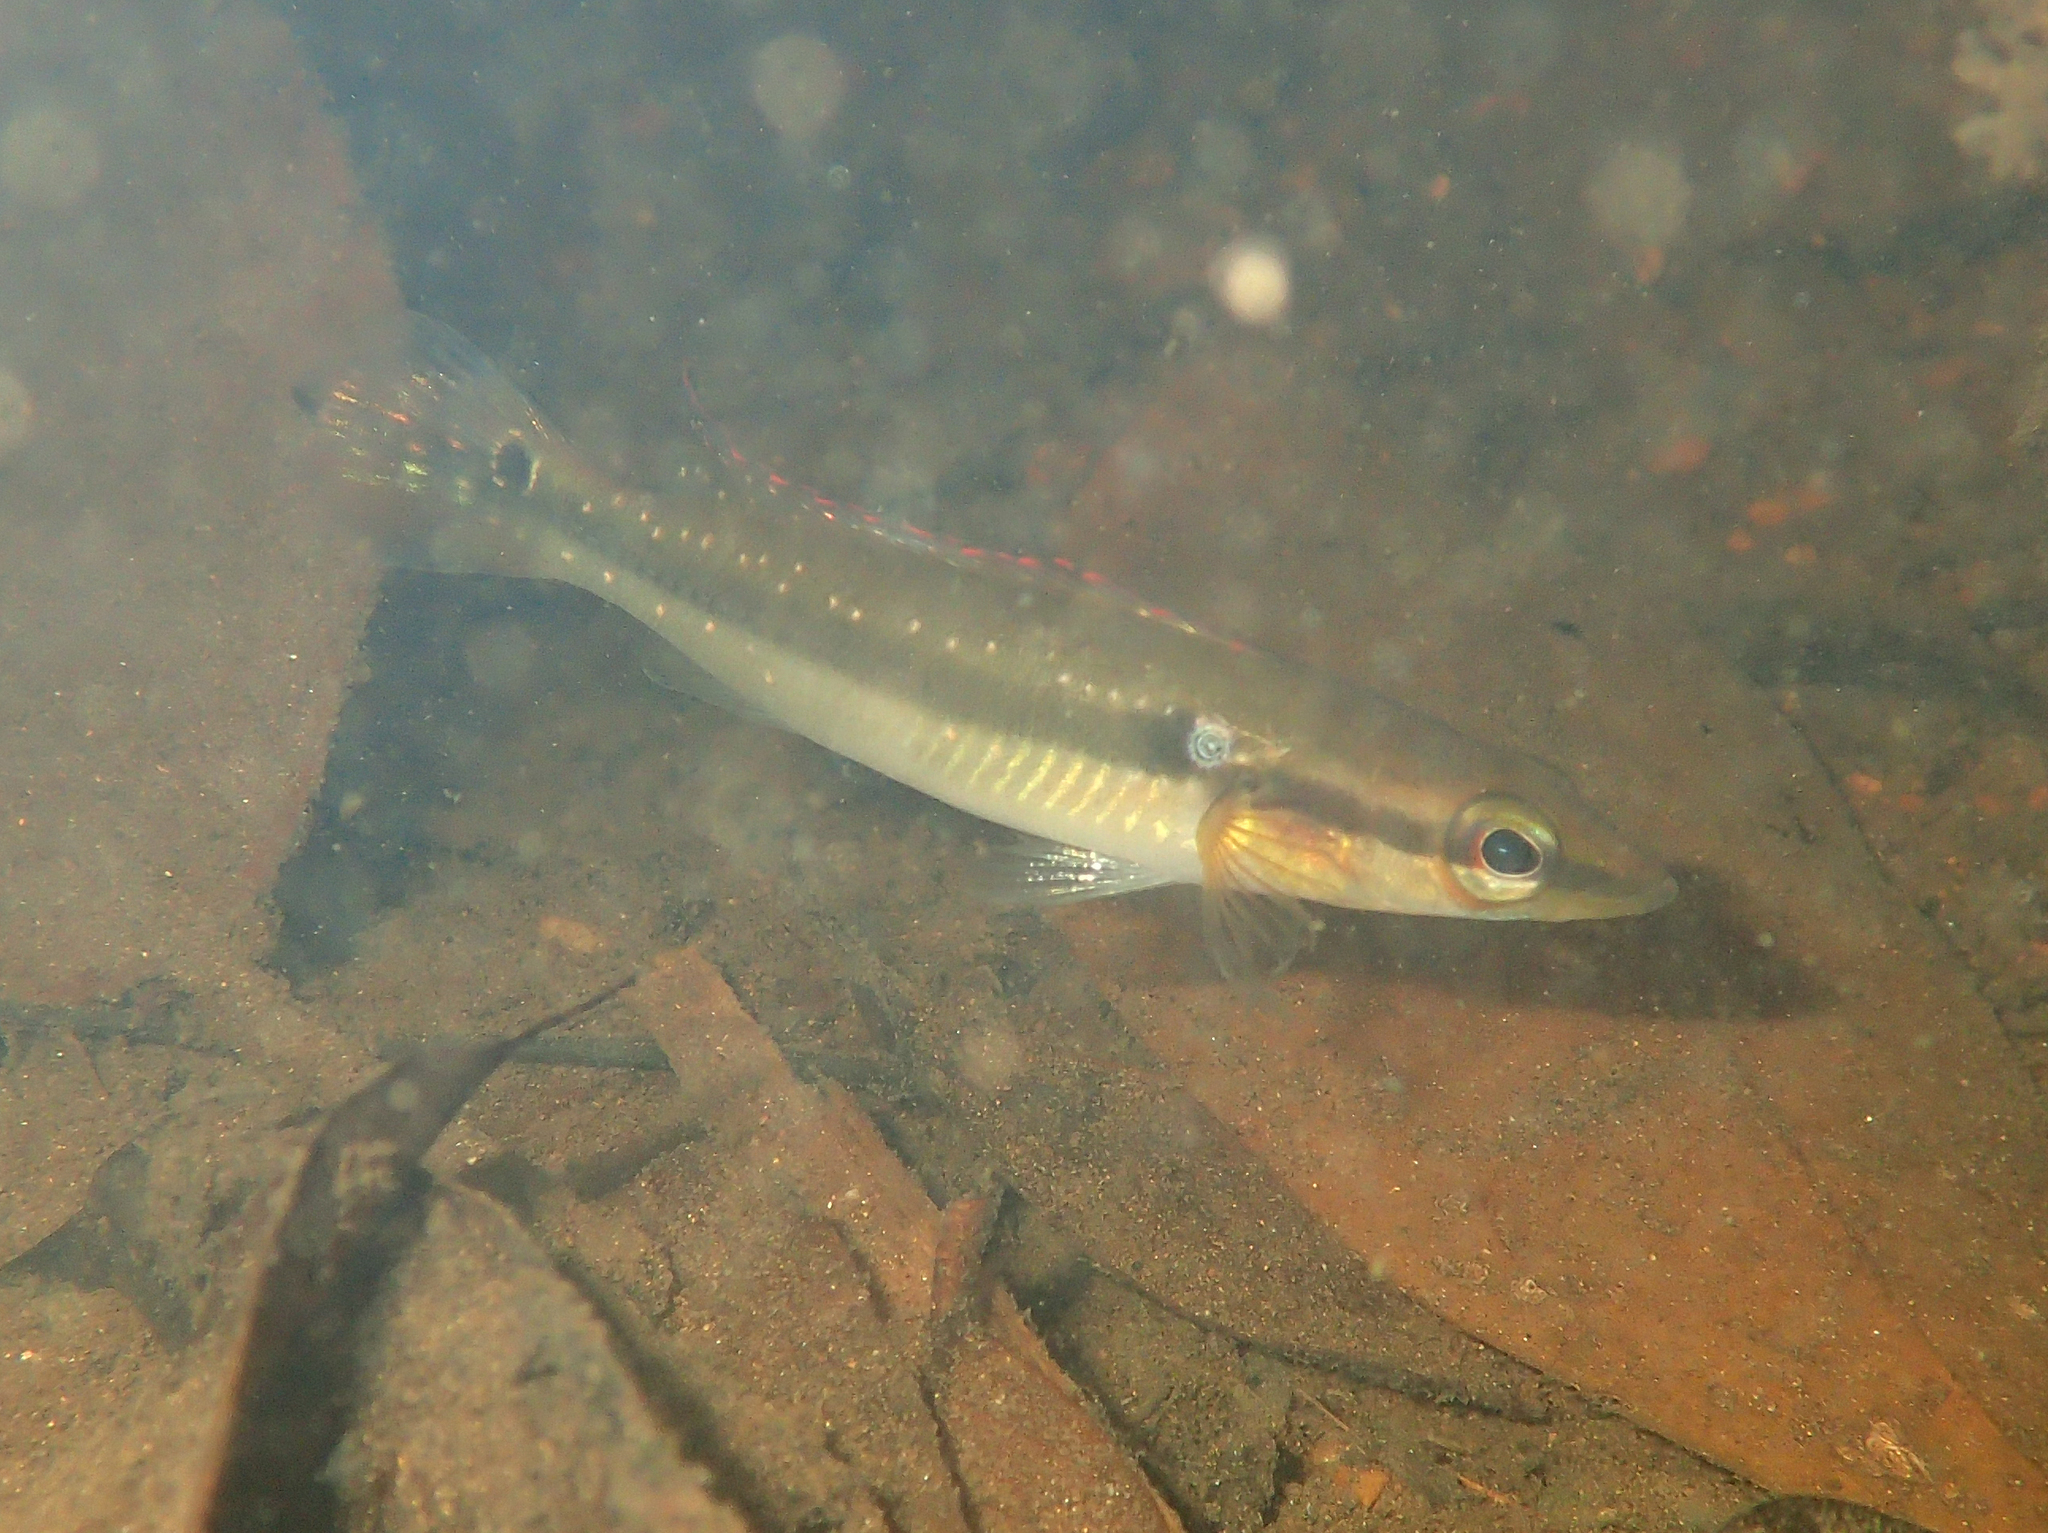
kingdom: Animalia
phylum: Chordata
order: Perciformes
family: Cichlidae
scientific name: Cichlidae
